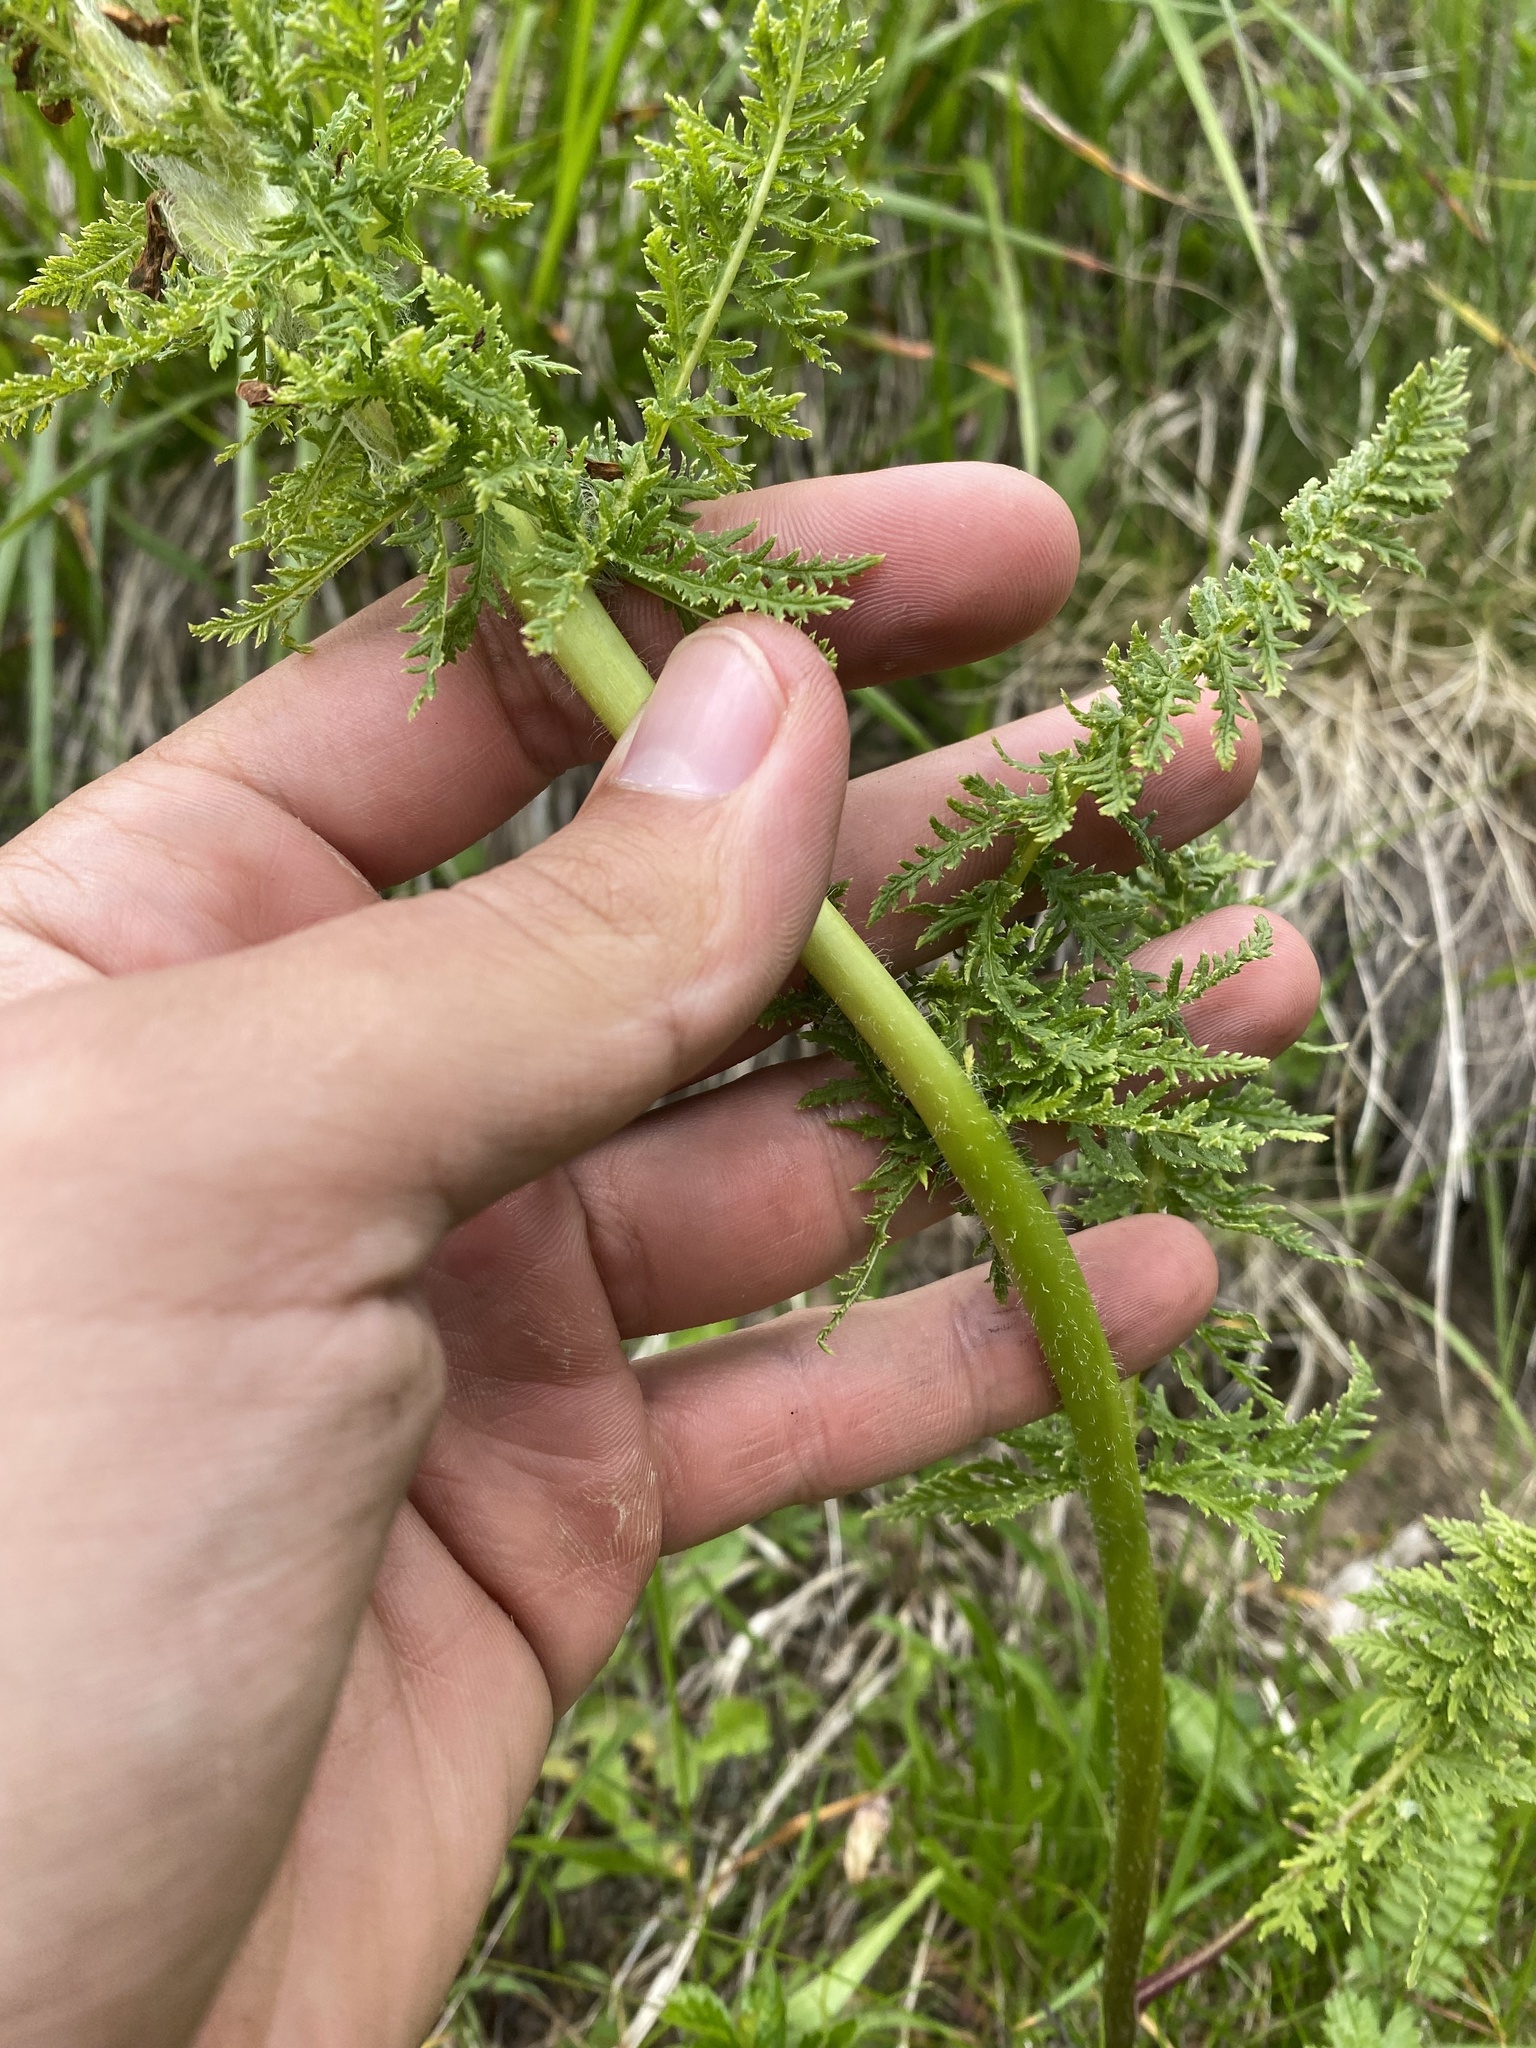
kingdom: Plantae
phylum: Tracheophyta
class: Magnoliopsida
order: Lamiales
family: Orobanchaceae
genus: Pedicularis
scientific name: Pedicularis condensata
